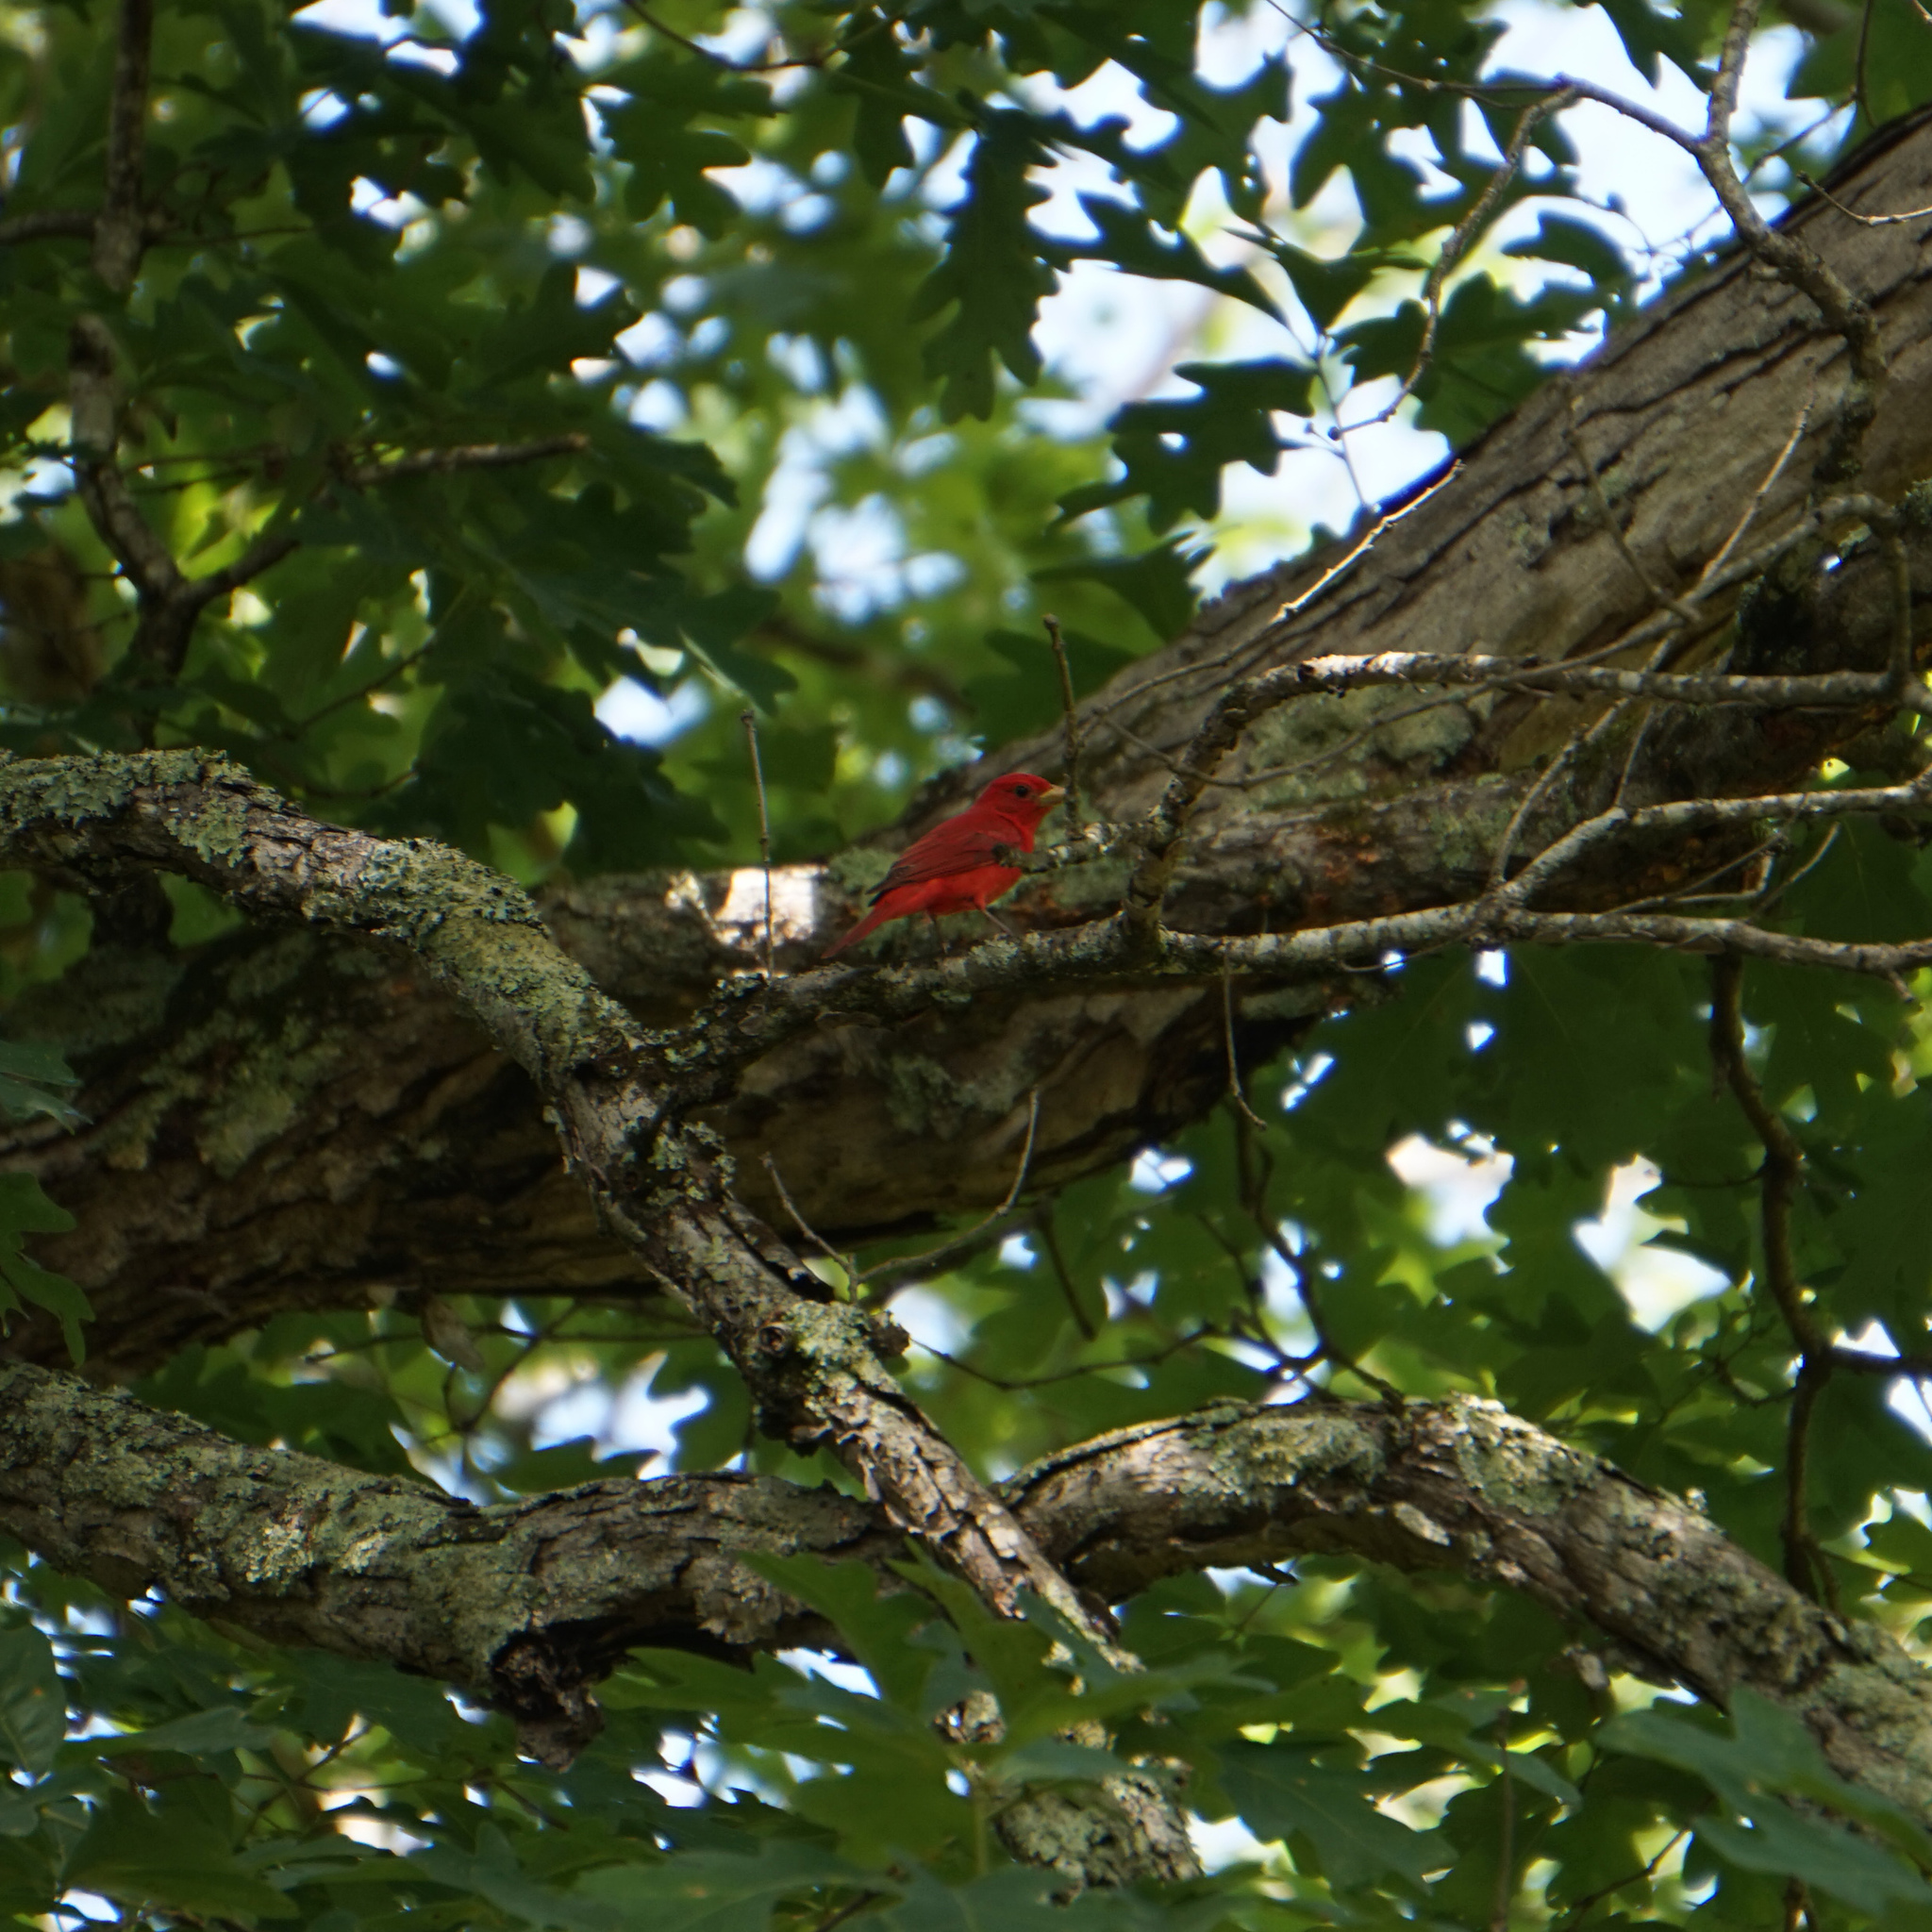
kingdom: Animalia
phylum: Chordata
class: Aves
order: Passeriformes
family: Cardinalidae
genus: Piranga
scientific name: Piranga rubra
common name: Summer tanager
